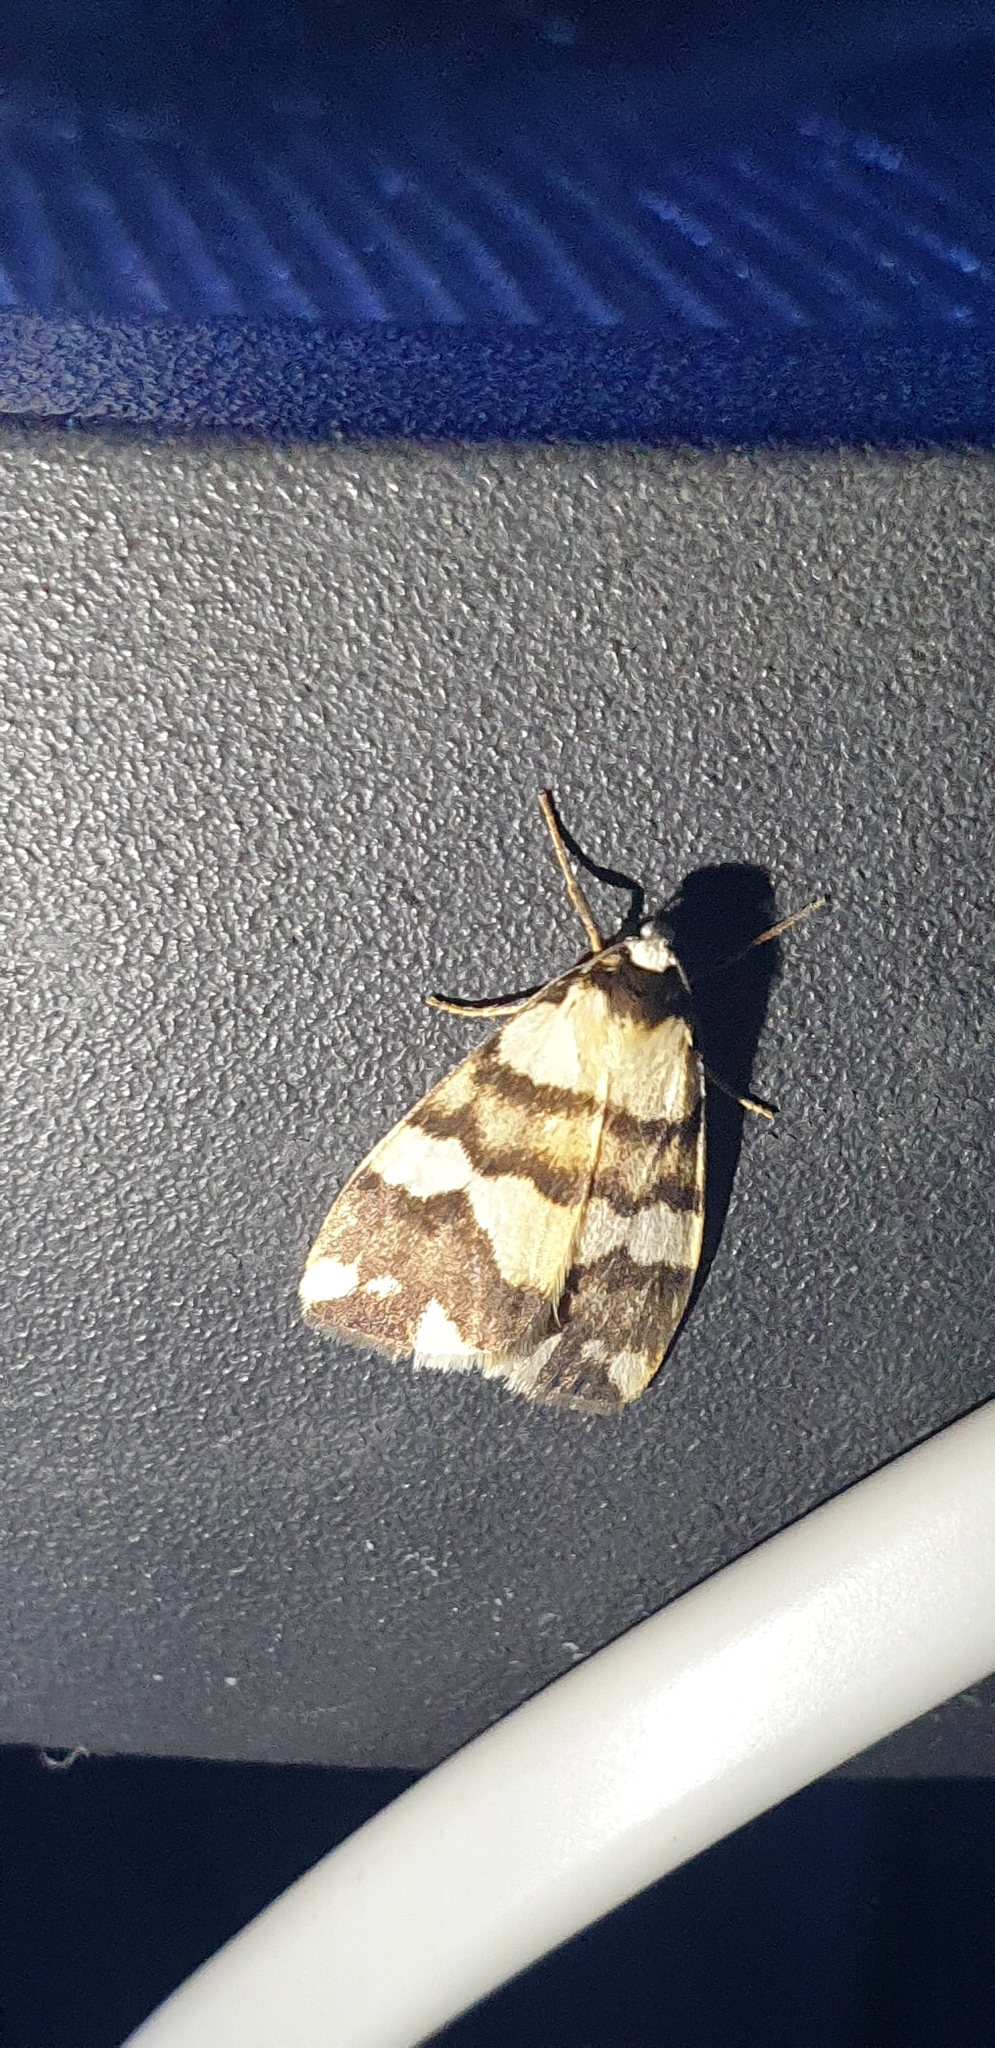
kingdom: Animalia
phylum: Arthropoda
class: Insecta
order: Lepidoptera
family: Erebidae
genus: Termessa
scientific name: Termessa gratiosa
